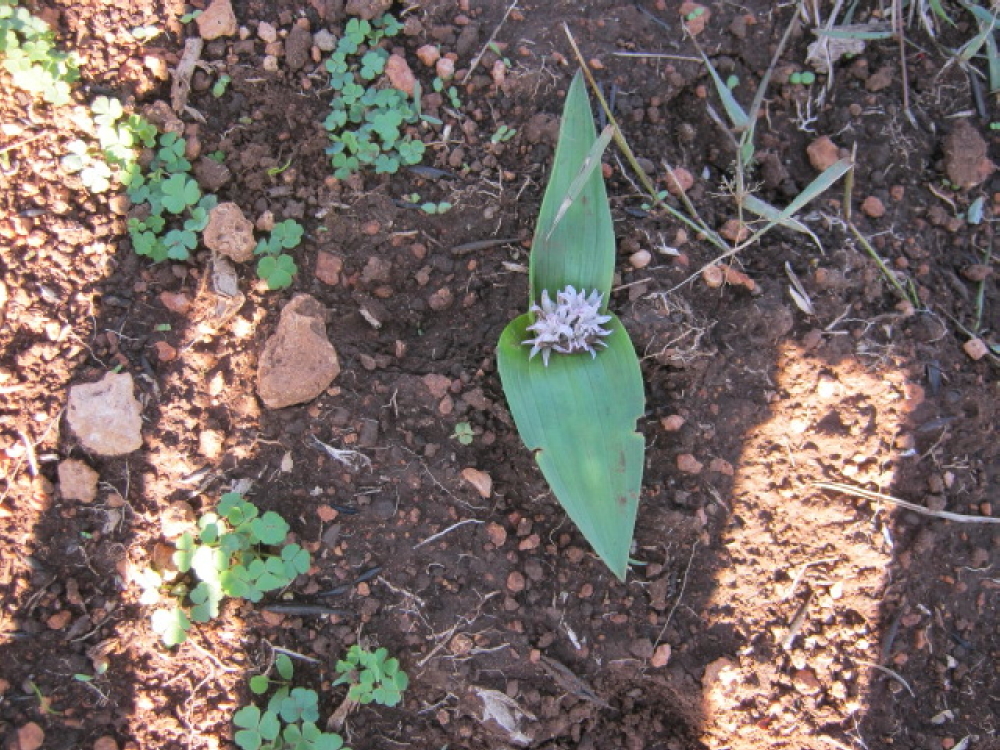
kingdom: Plantae
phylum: Tracheophyta
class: Liliopsida
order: Asparagales
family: Asparagaceae
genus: Lachenalia
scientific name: Lachenalia ensifolia
